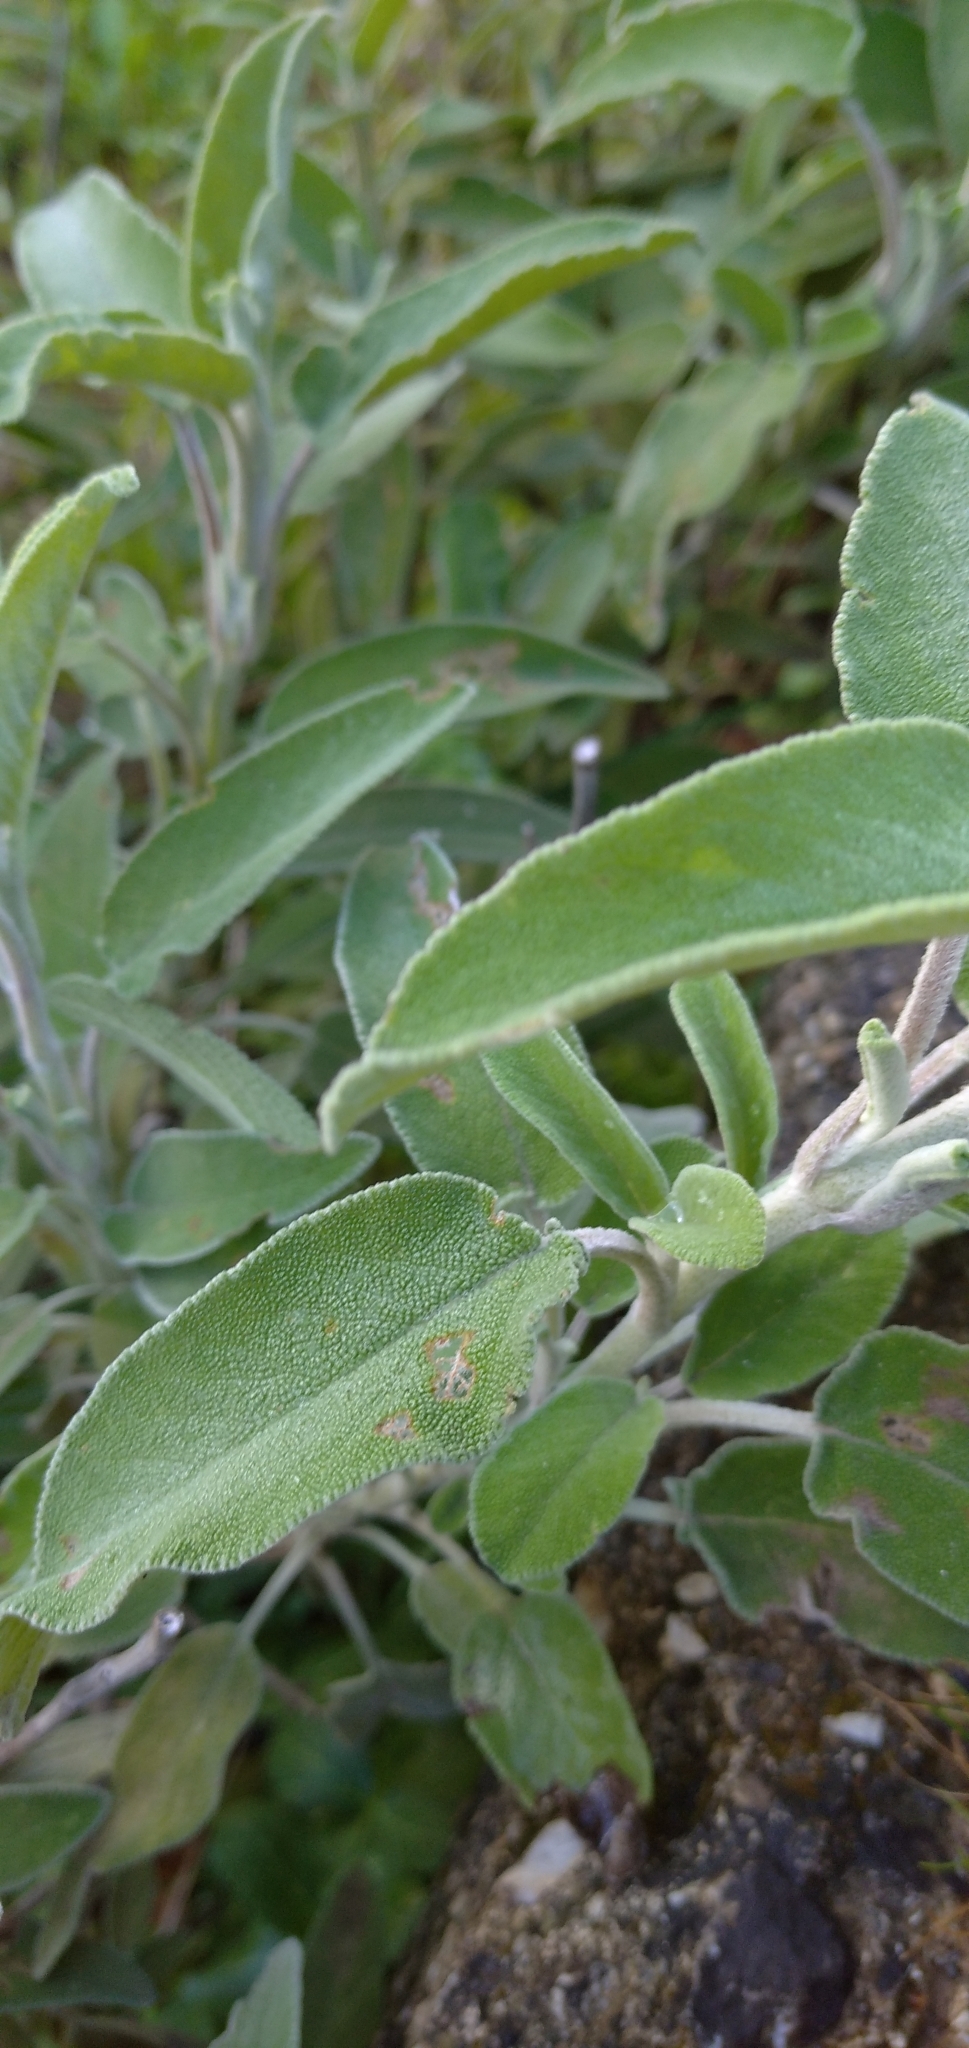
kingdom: Plantae
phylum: Tracheophyta
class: Magnoliopsida
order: Lamiales
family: Lamiaceae
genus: Salvia
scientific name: Salvia fruticosa
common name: Greek sage
